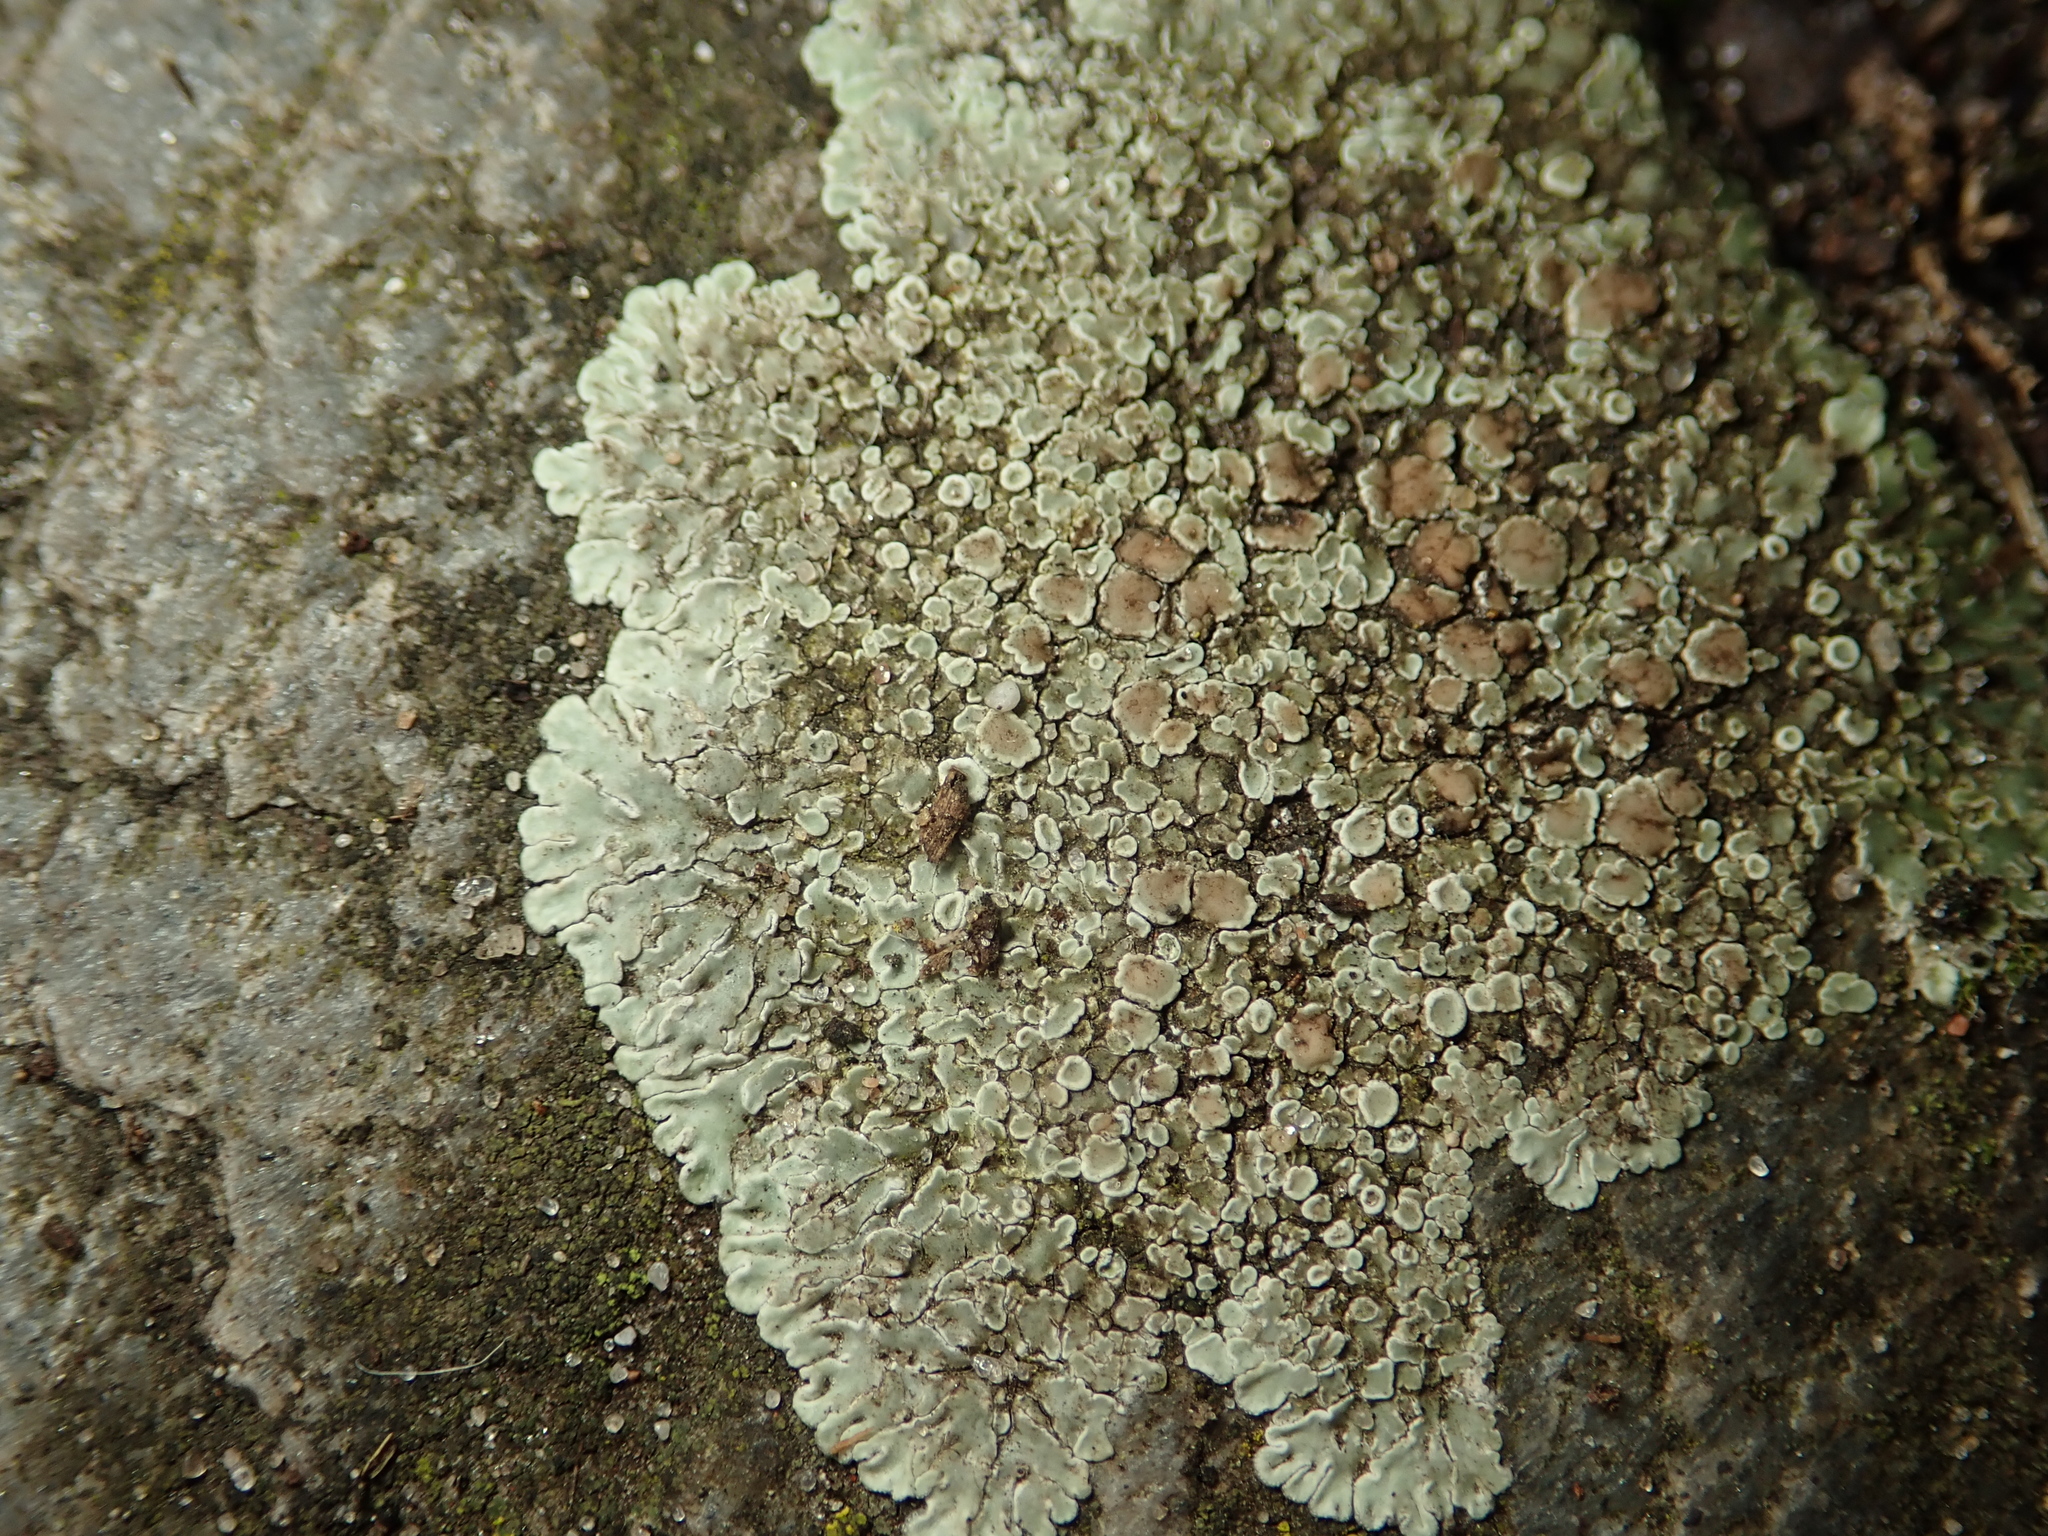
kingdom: Fungi
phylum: Ascomycota
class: Lecanoromycetes
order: Lecanorales
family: Lecanoraceae
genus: Protoparmeliopsis
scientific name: Protoparmeliopsis muralis
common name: Stonewall rim lichen
